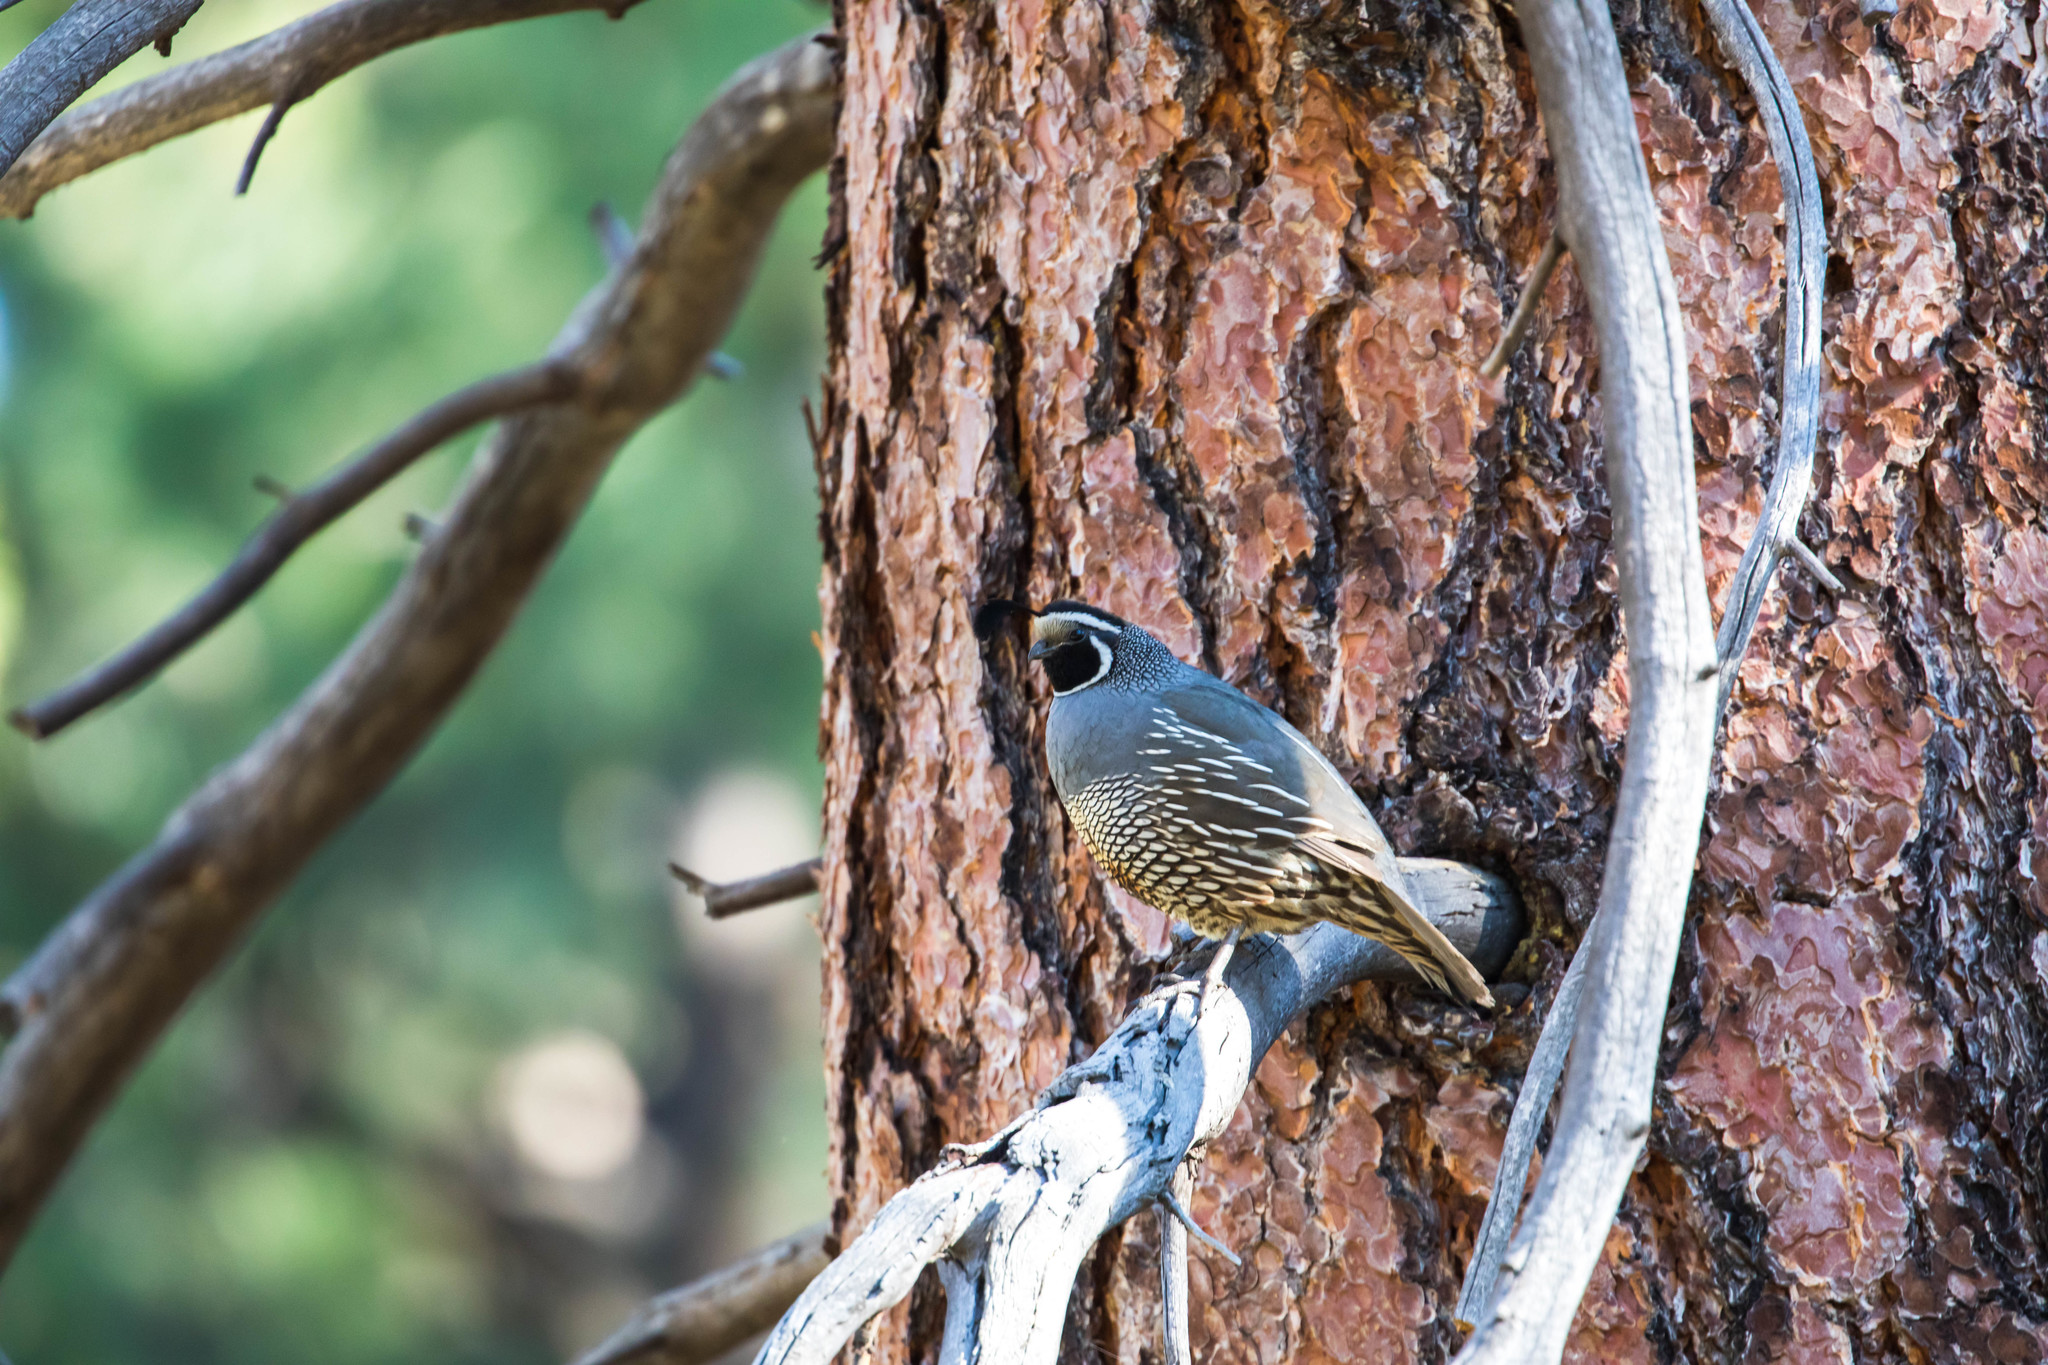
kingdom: Animalia
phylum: Chordata
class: Aves
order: Galliformes
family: Odontophoridae
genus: Callipepla
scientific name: Callipepla californica
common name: California quail
